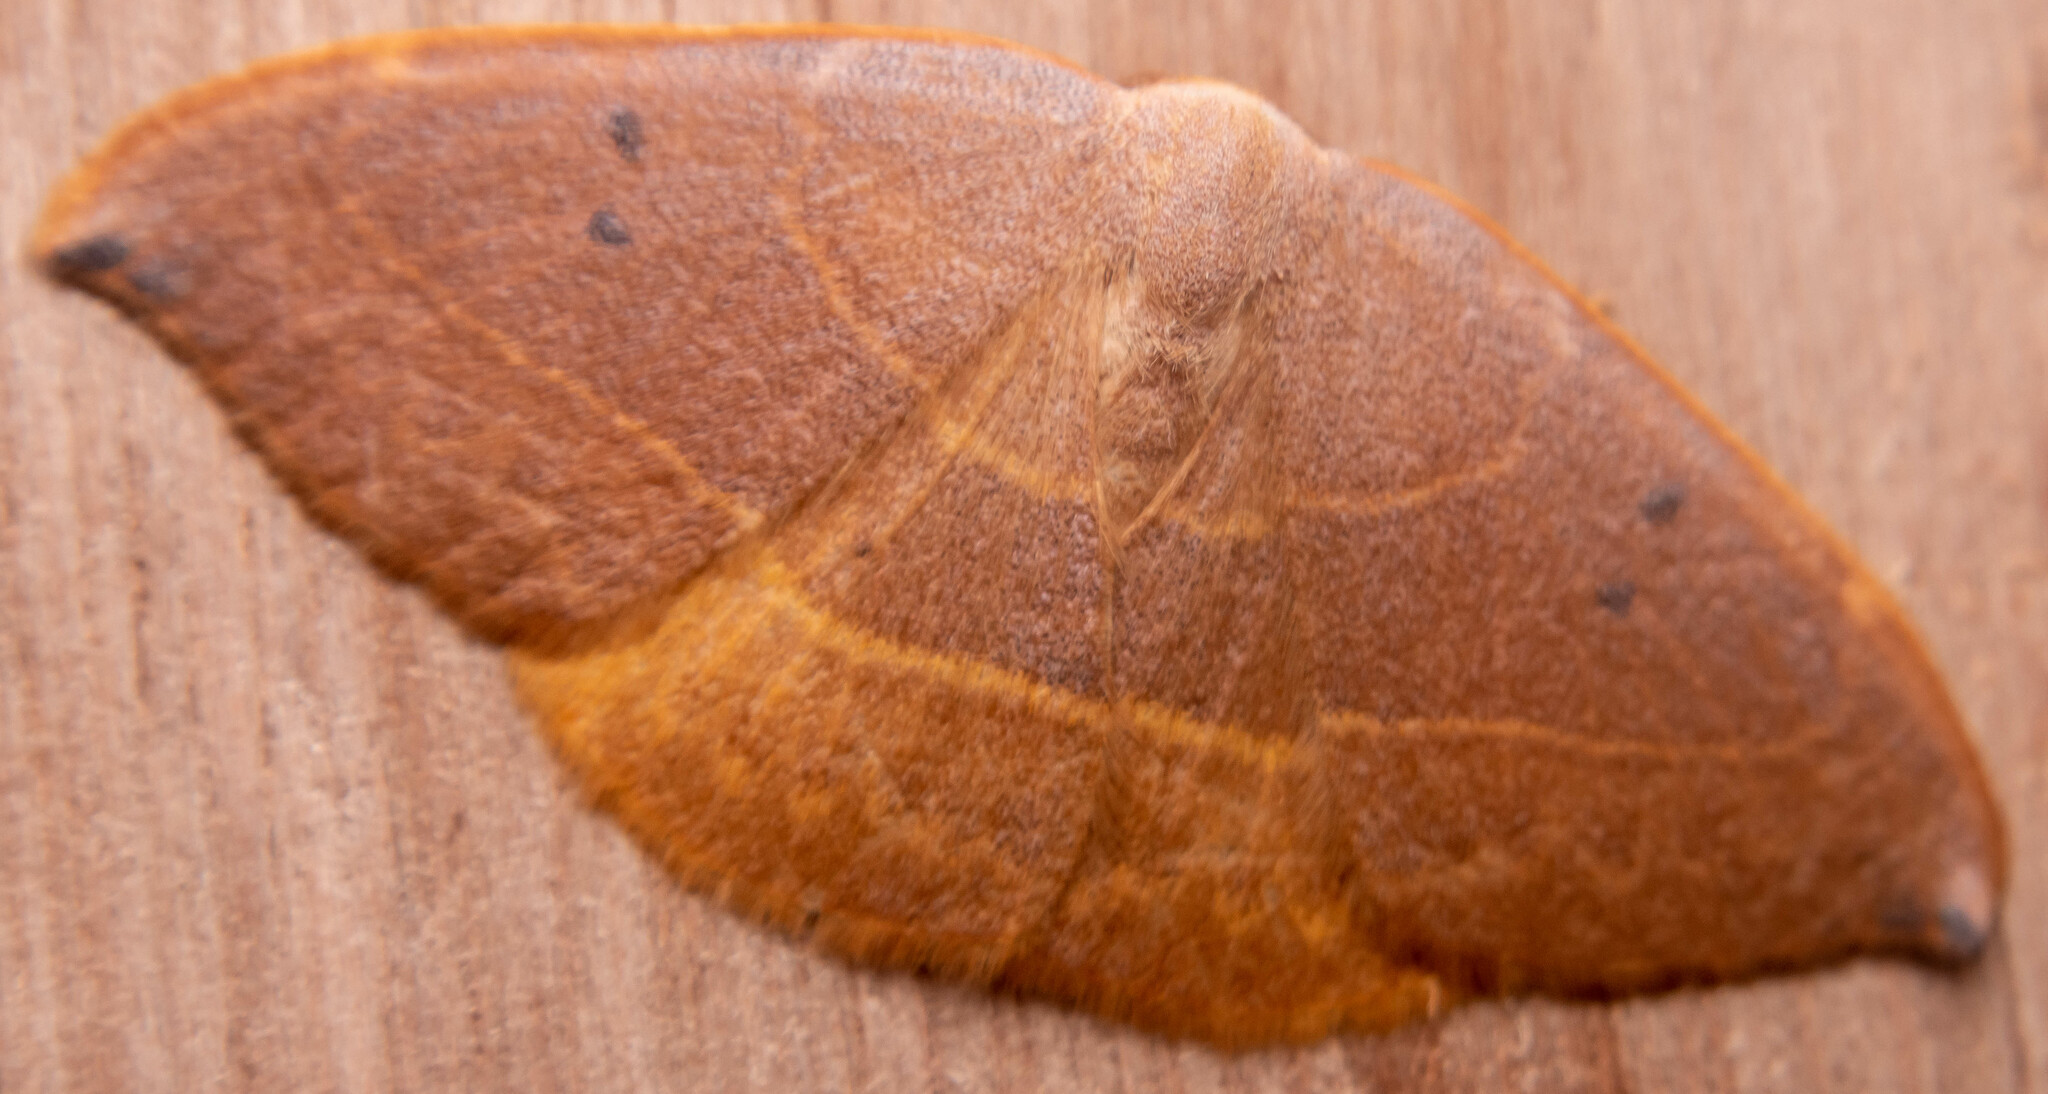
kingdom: Animalia
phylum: Arthropoda
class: Insecta
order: Lepidoptera
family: Drepanidae
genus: Watsonalla
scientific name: Watsonalla binaria
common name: Oak hook-tip
